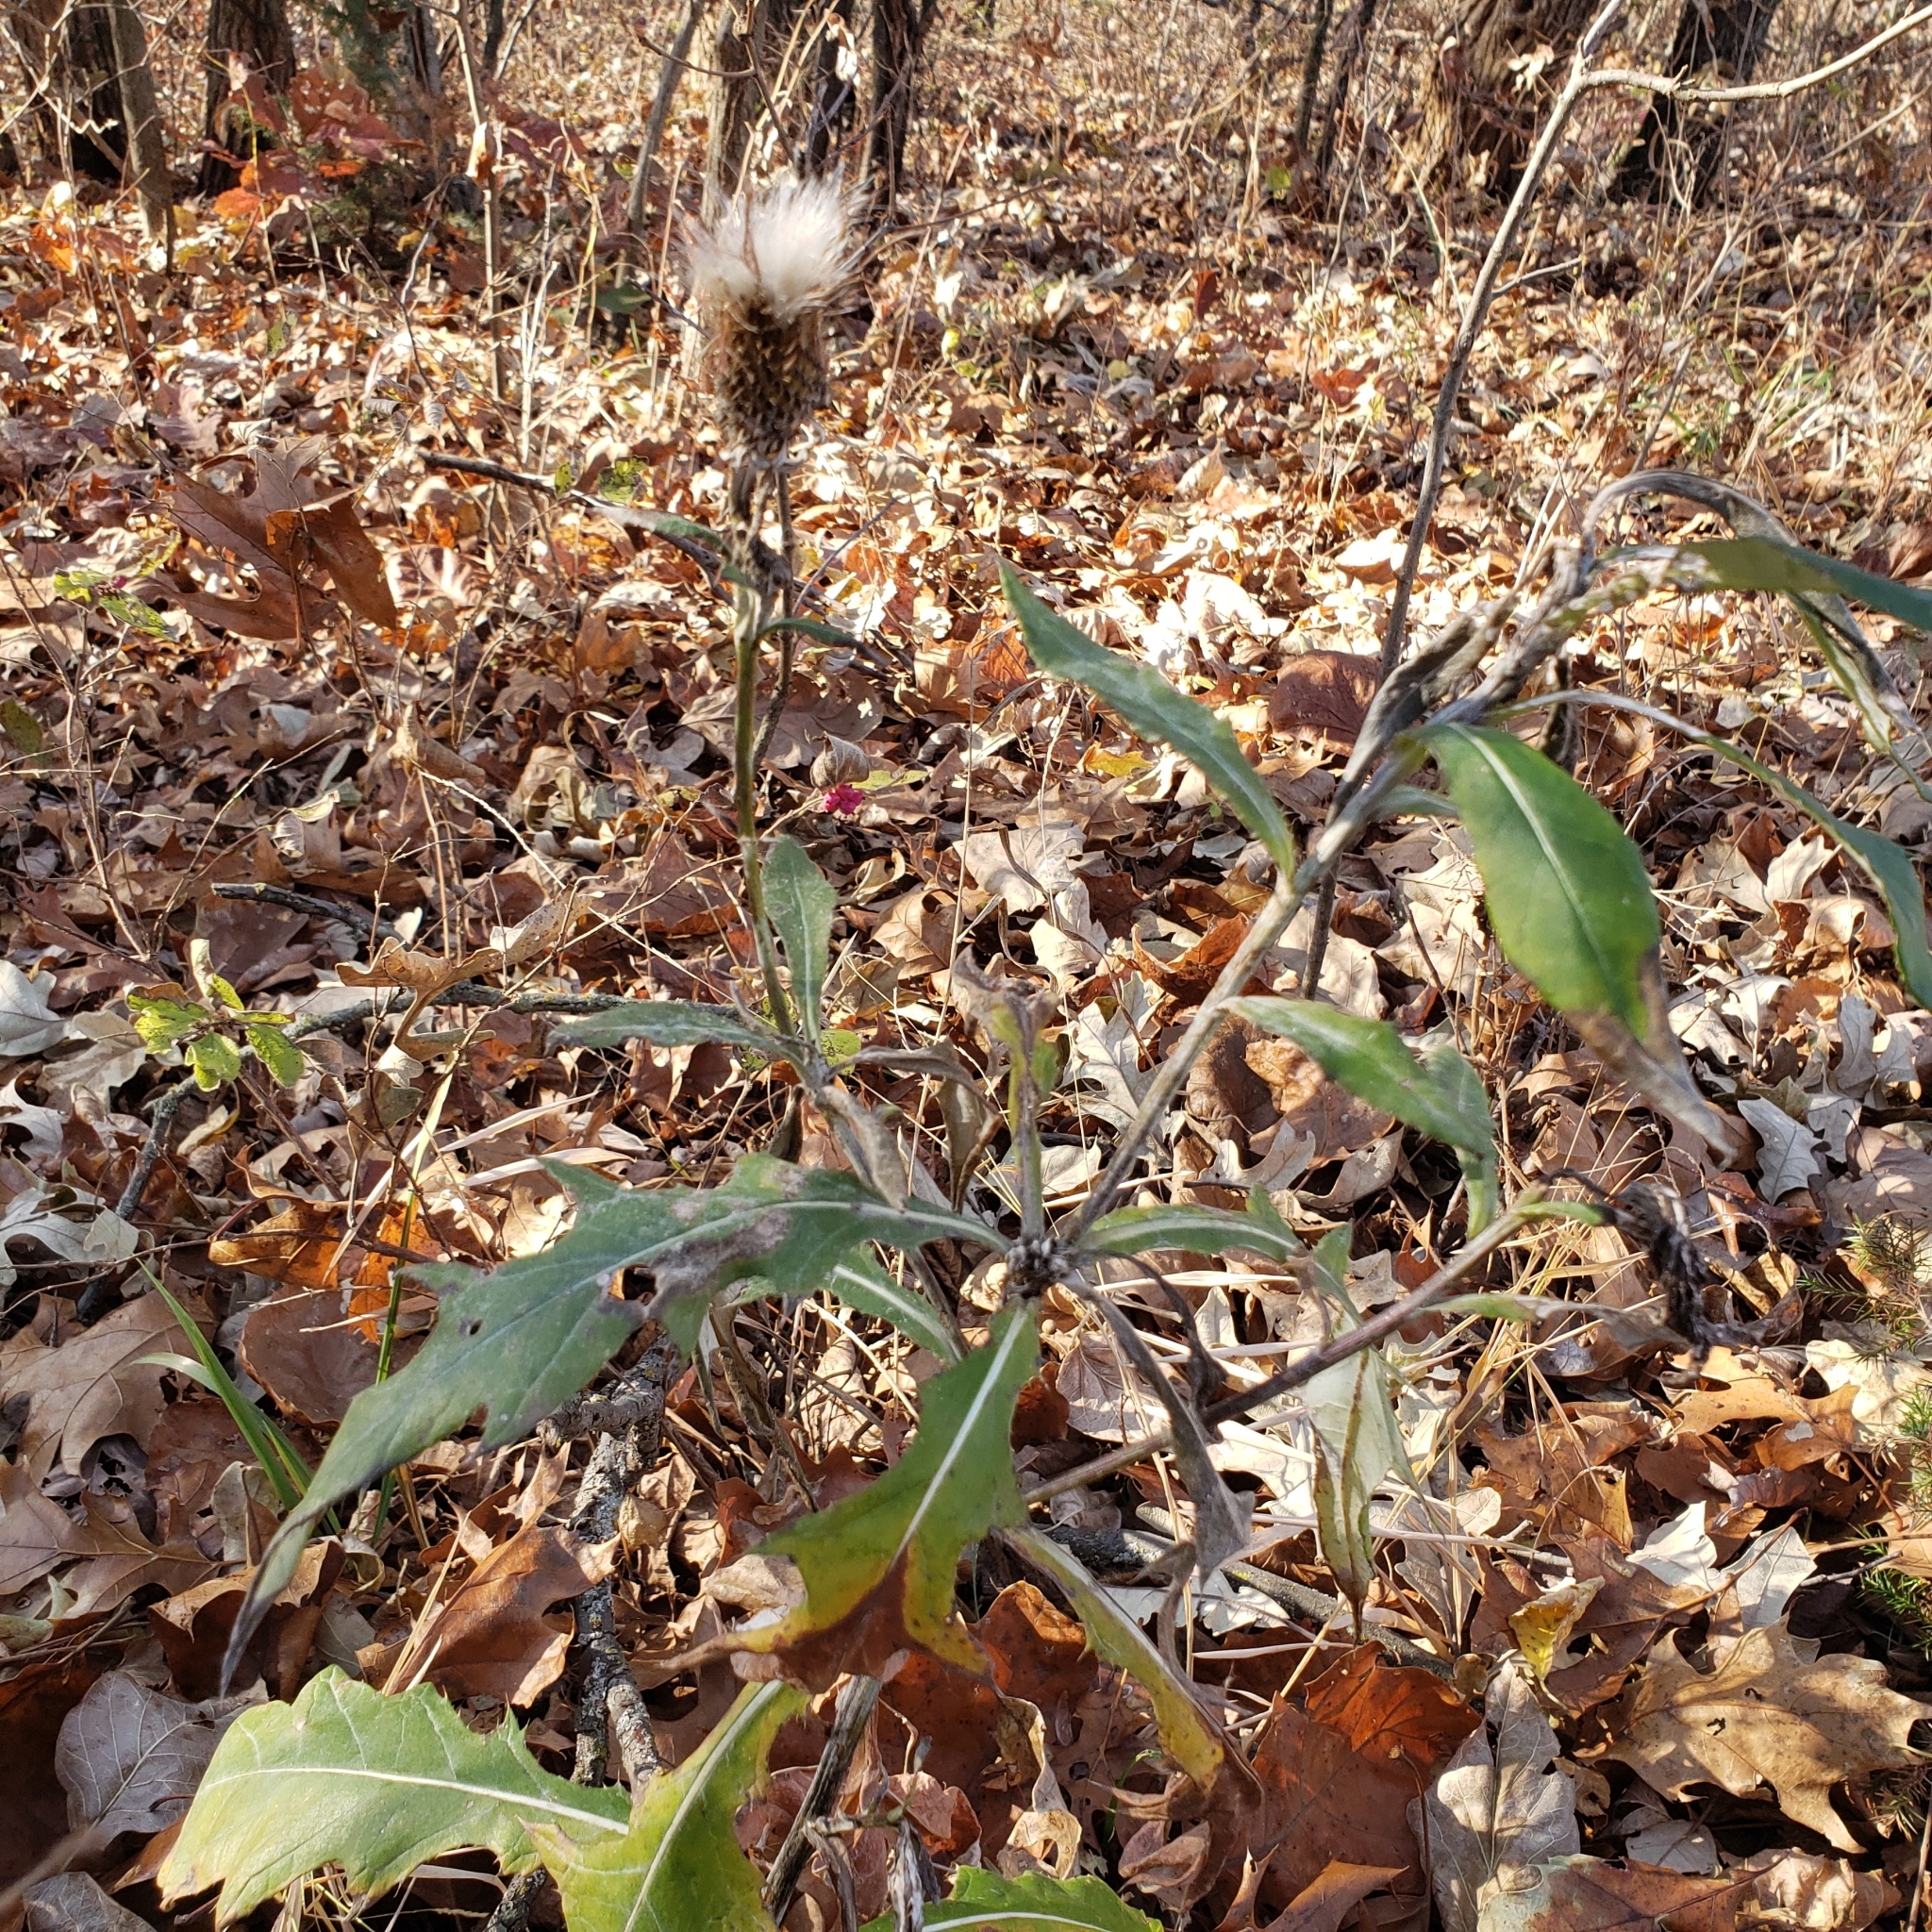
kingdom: Plantae
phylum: Tracheophyta
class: Magnoliopsida
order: Asterales
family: Asteraceae
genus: Cirsium
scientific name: Cirsium altissimum
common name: Roadside thistle
